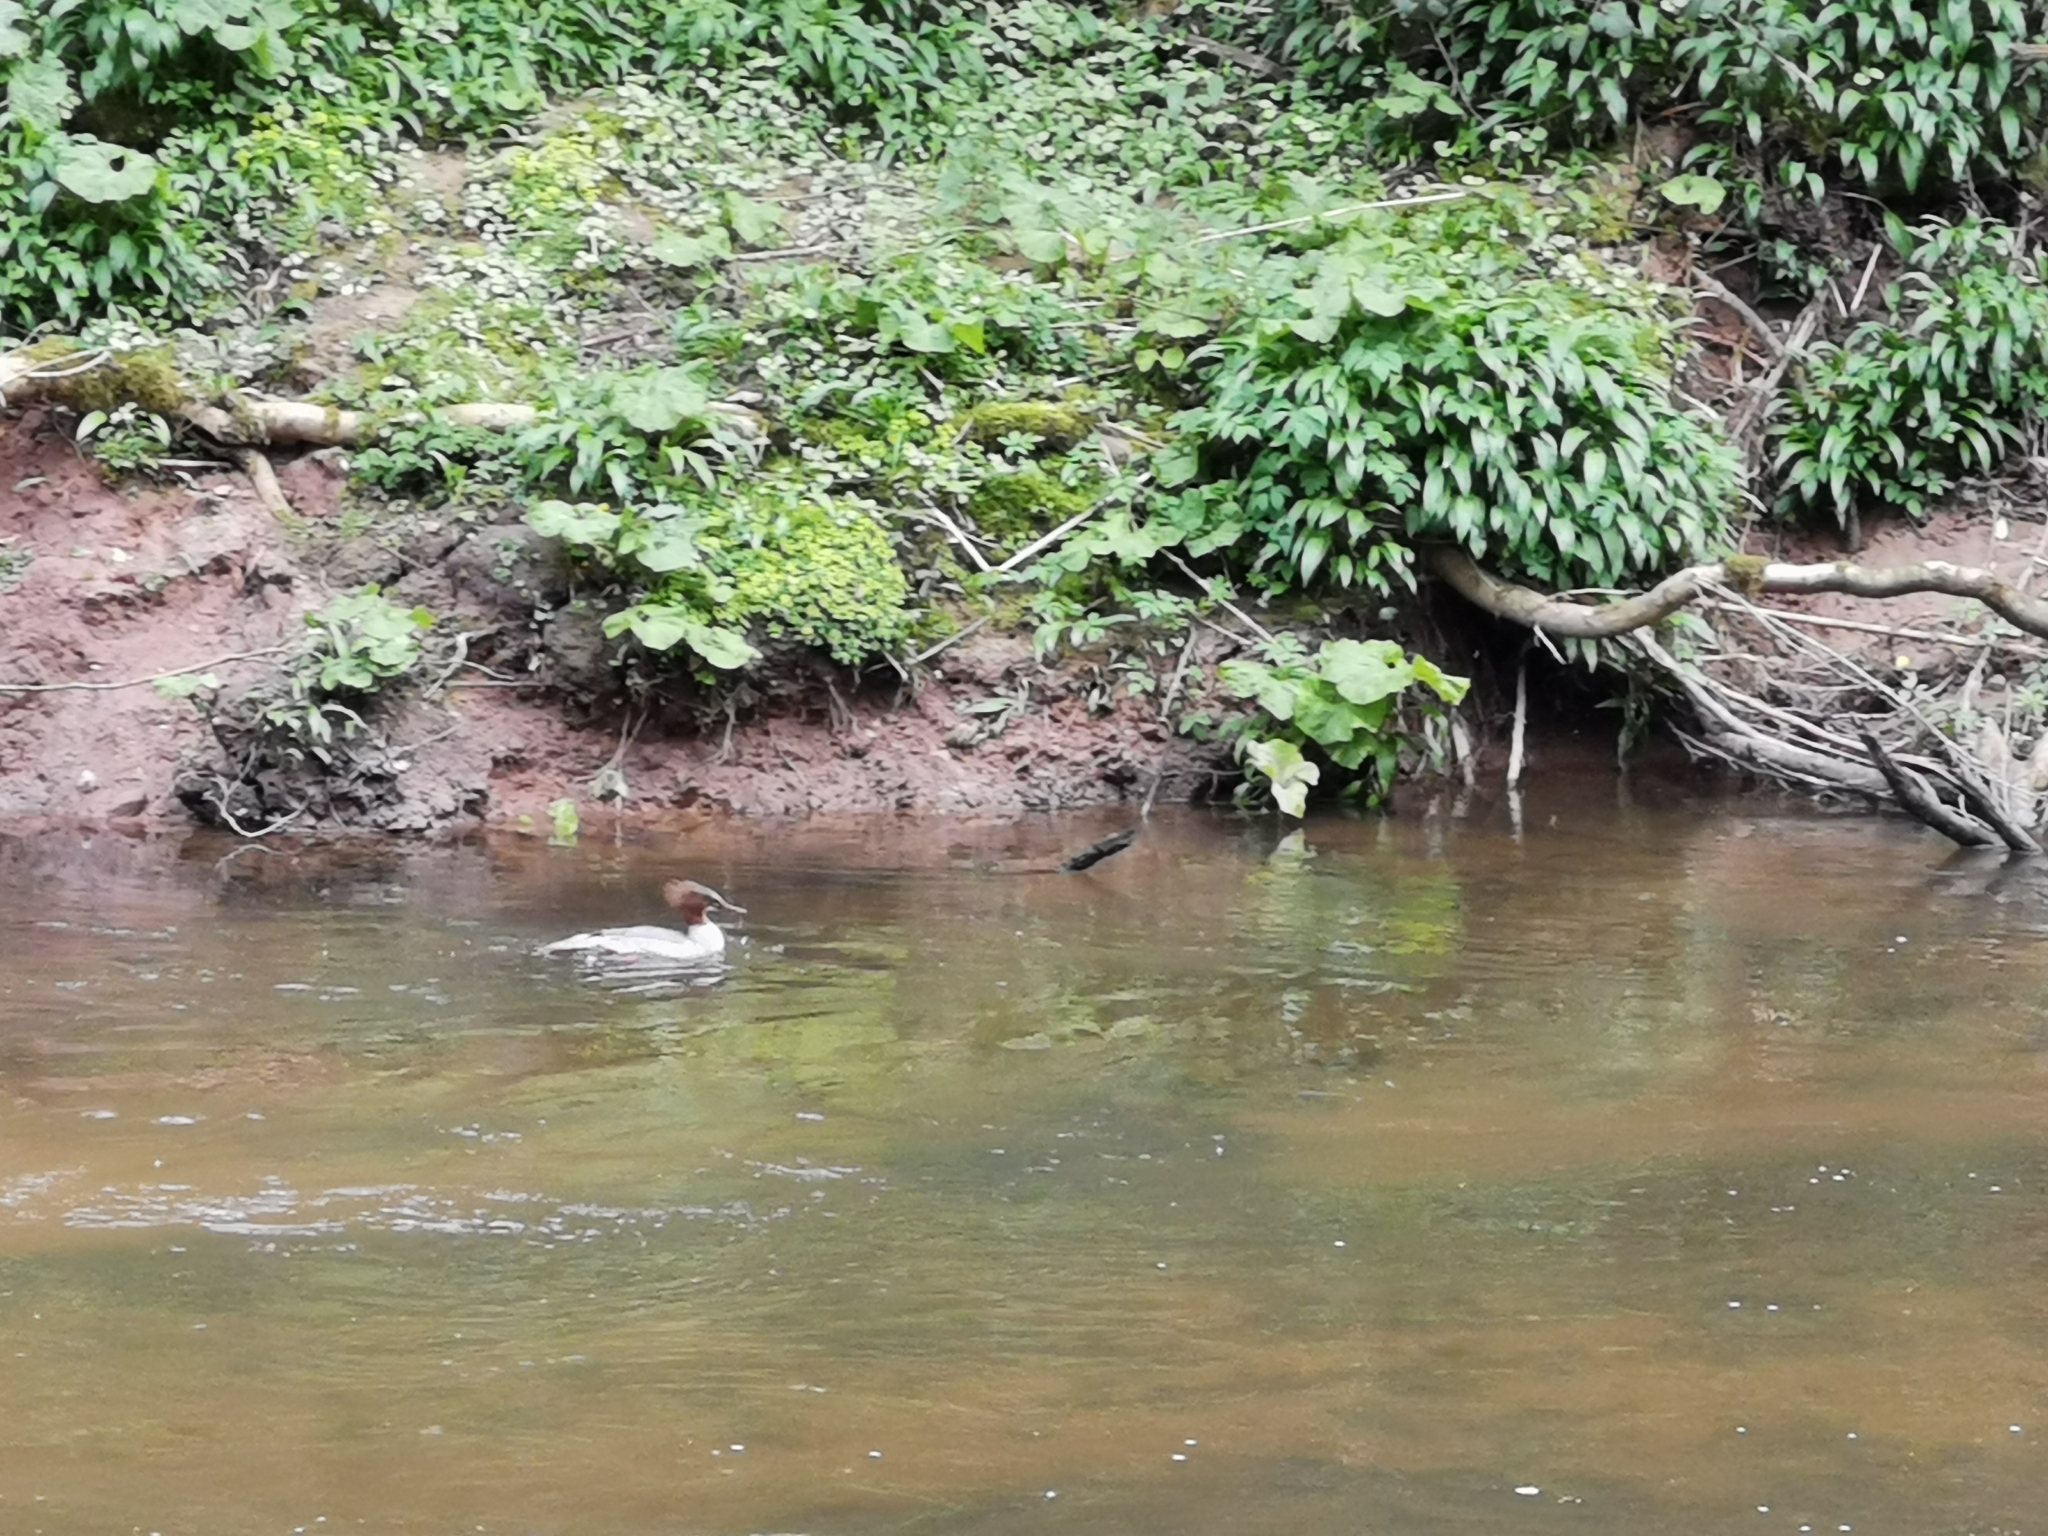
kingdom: Animalia
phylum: Chordata
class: Aves
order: Anseriformes
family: Anatidae
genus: Mergus
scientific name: Mergus merganser
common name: Common merganser
